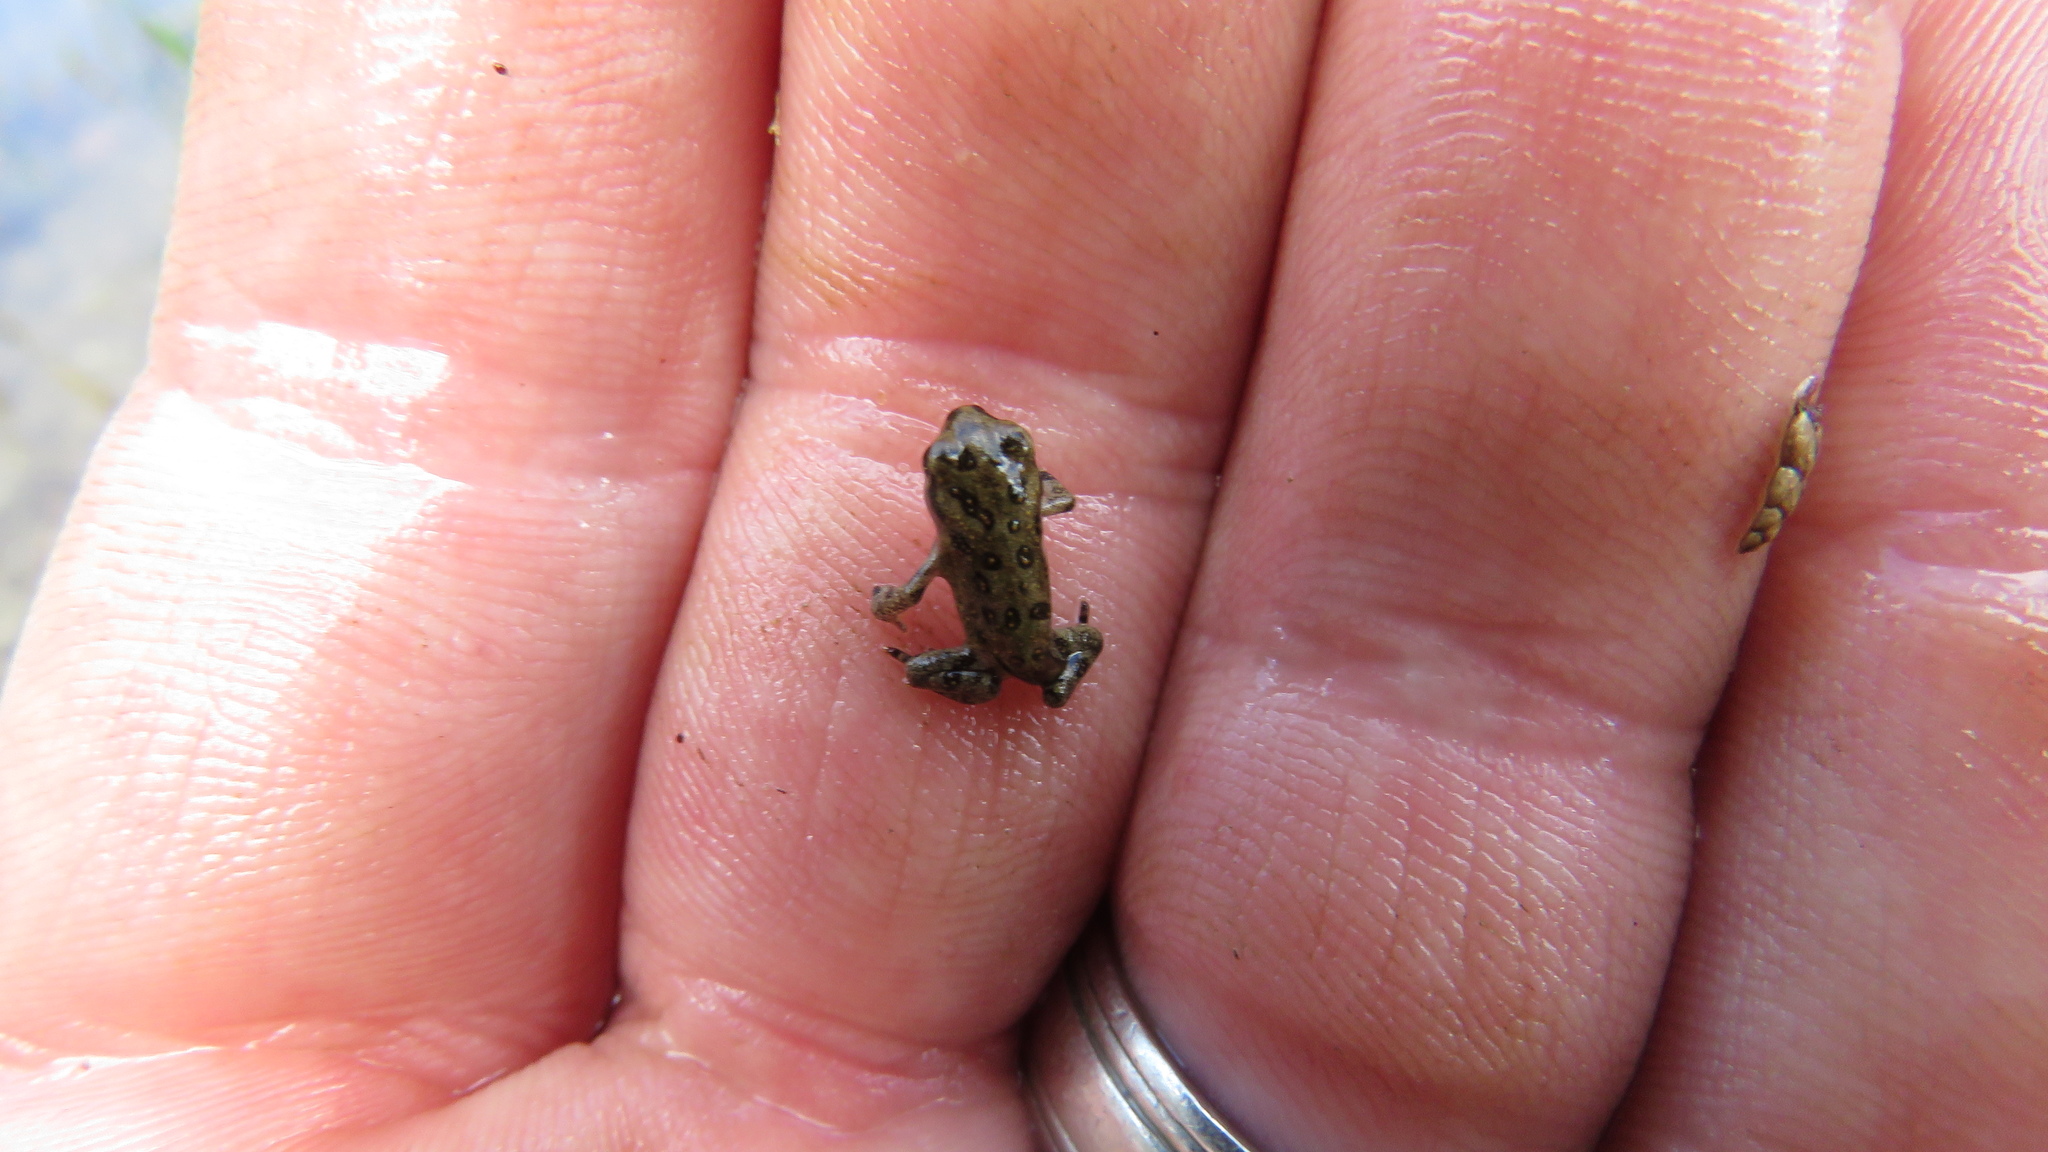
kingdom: Animalia
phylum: Chordata
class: Amphibia
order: Anura
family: Bufonidae
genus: Anaxyrus
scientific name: Anaxyrus americanus
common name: American toad
